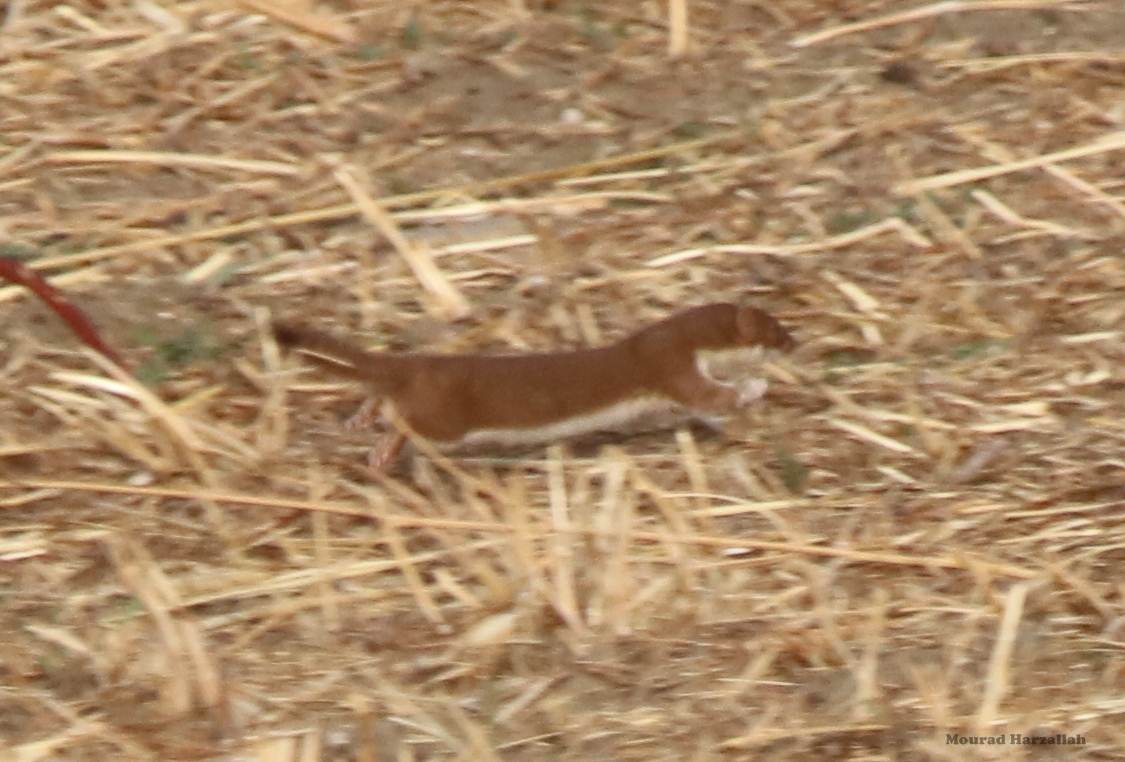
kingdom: Animalia
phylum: Chordata
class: Mammalia
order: Carnivora
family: Mustelidae
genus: Mustela
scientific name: Mustela nivalis
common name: Least weasel
